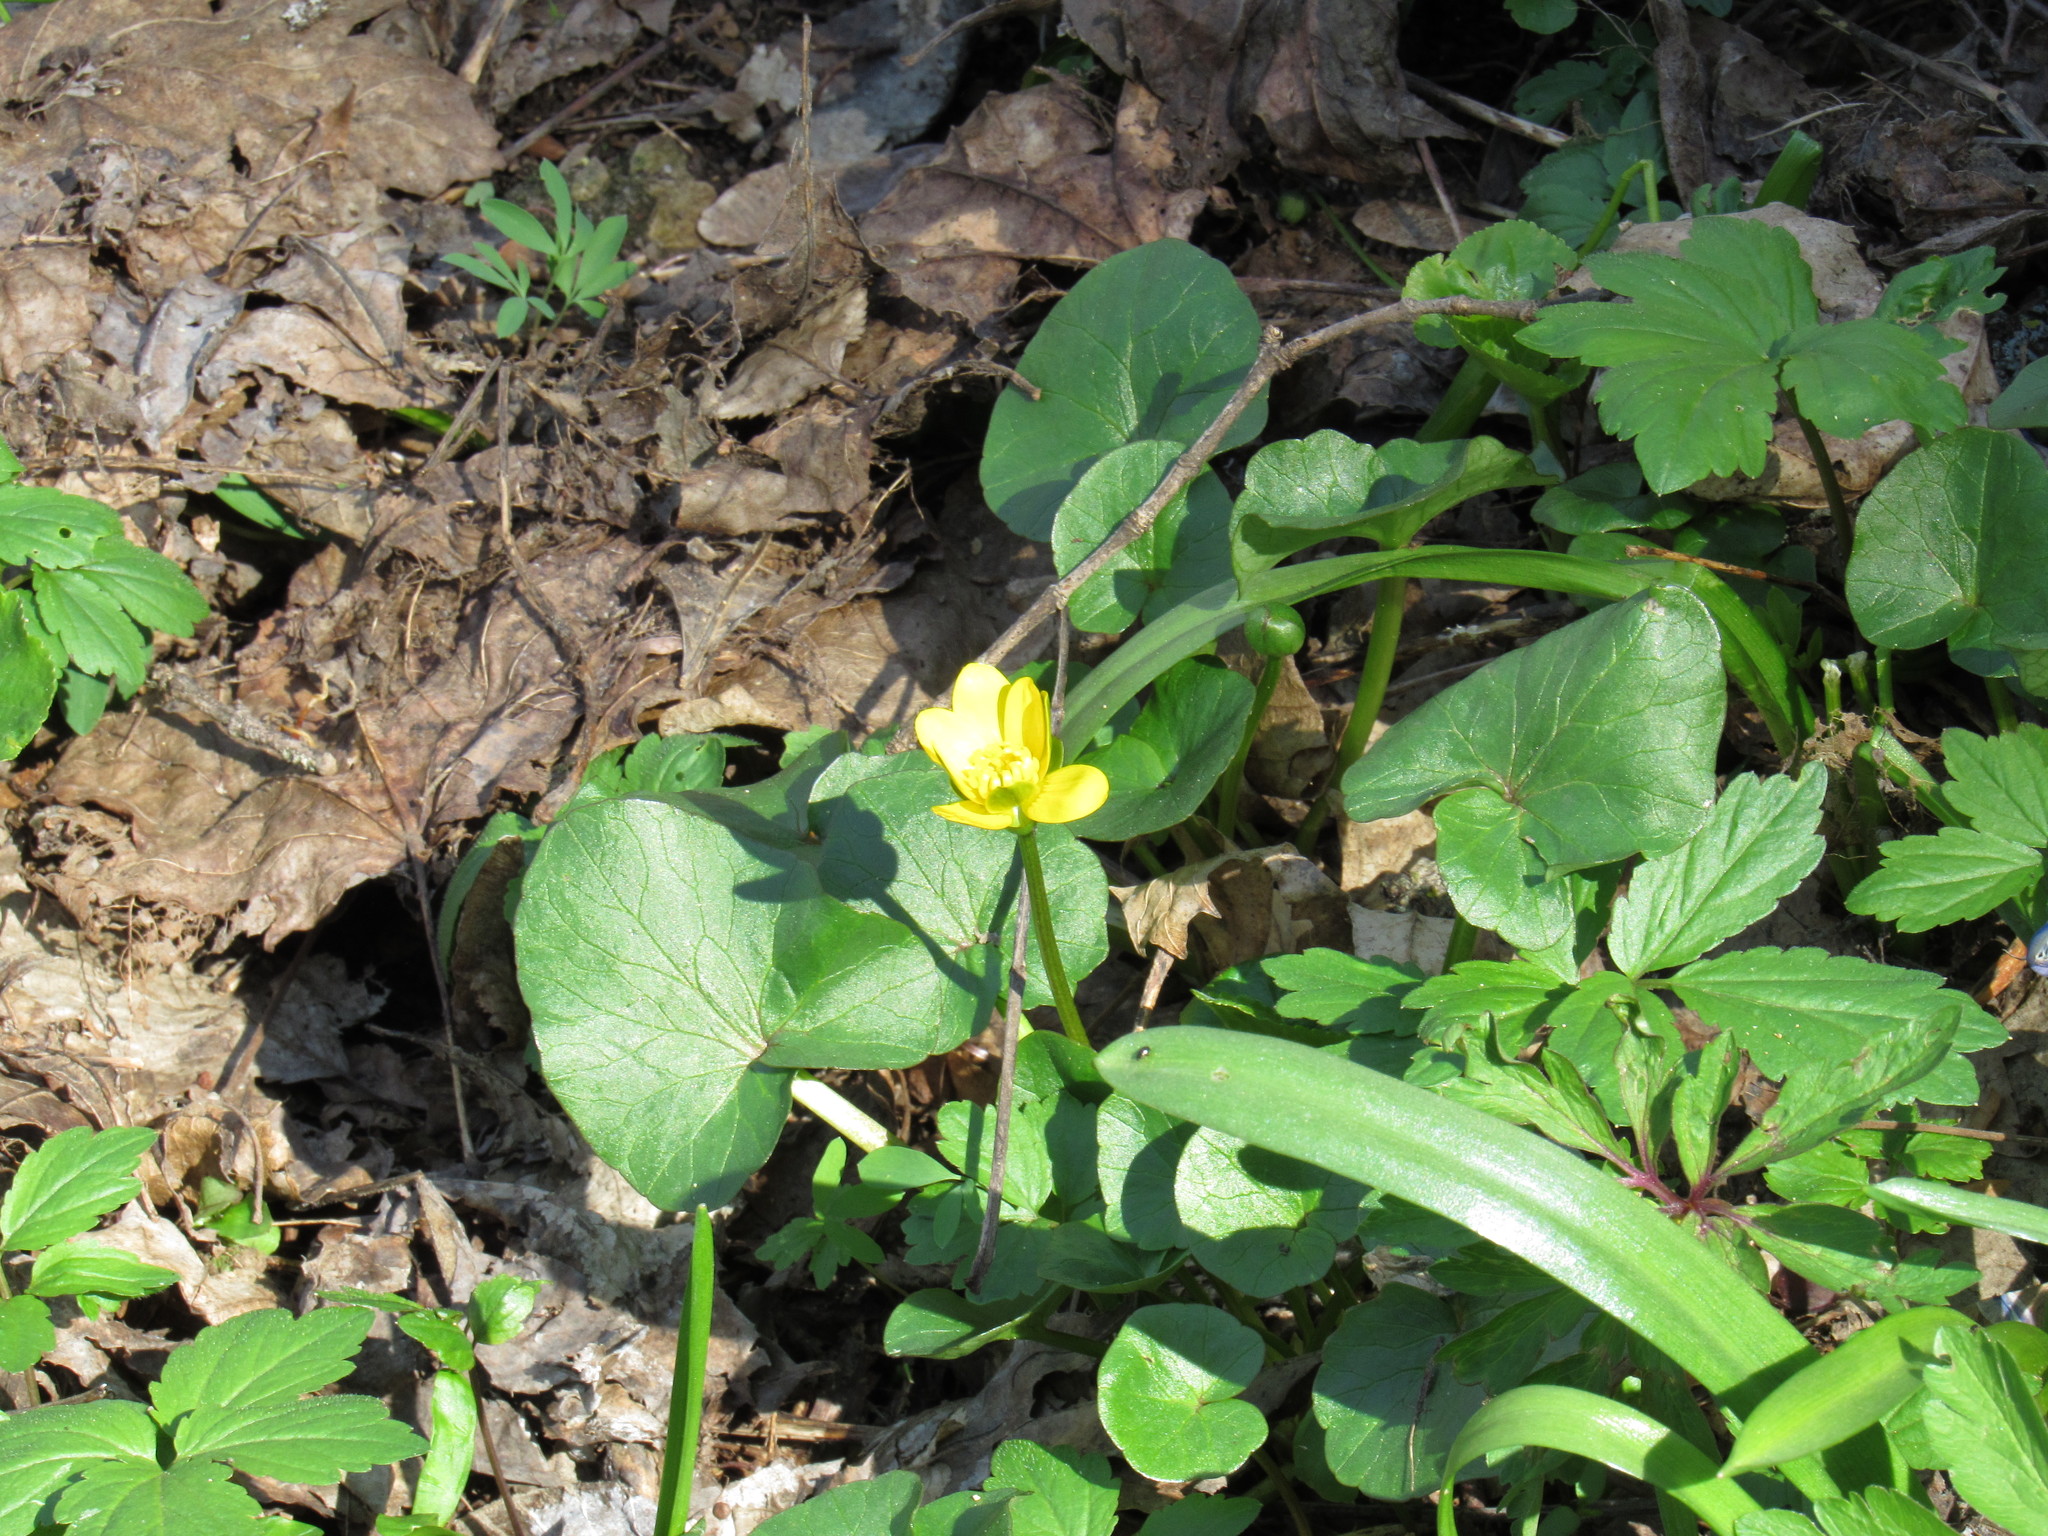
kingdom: Plantae
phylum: Tracheophyta
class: Magnoliopsida
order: Ranunculales
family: Ranunculaceae
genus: Ficaria
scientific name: Ficaria verna
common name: Lesser celandine
